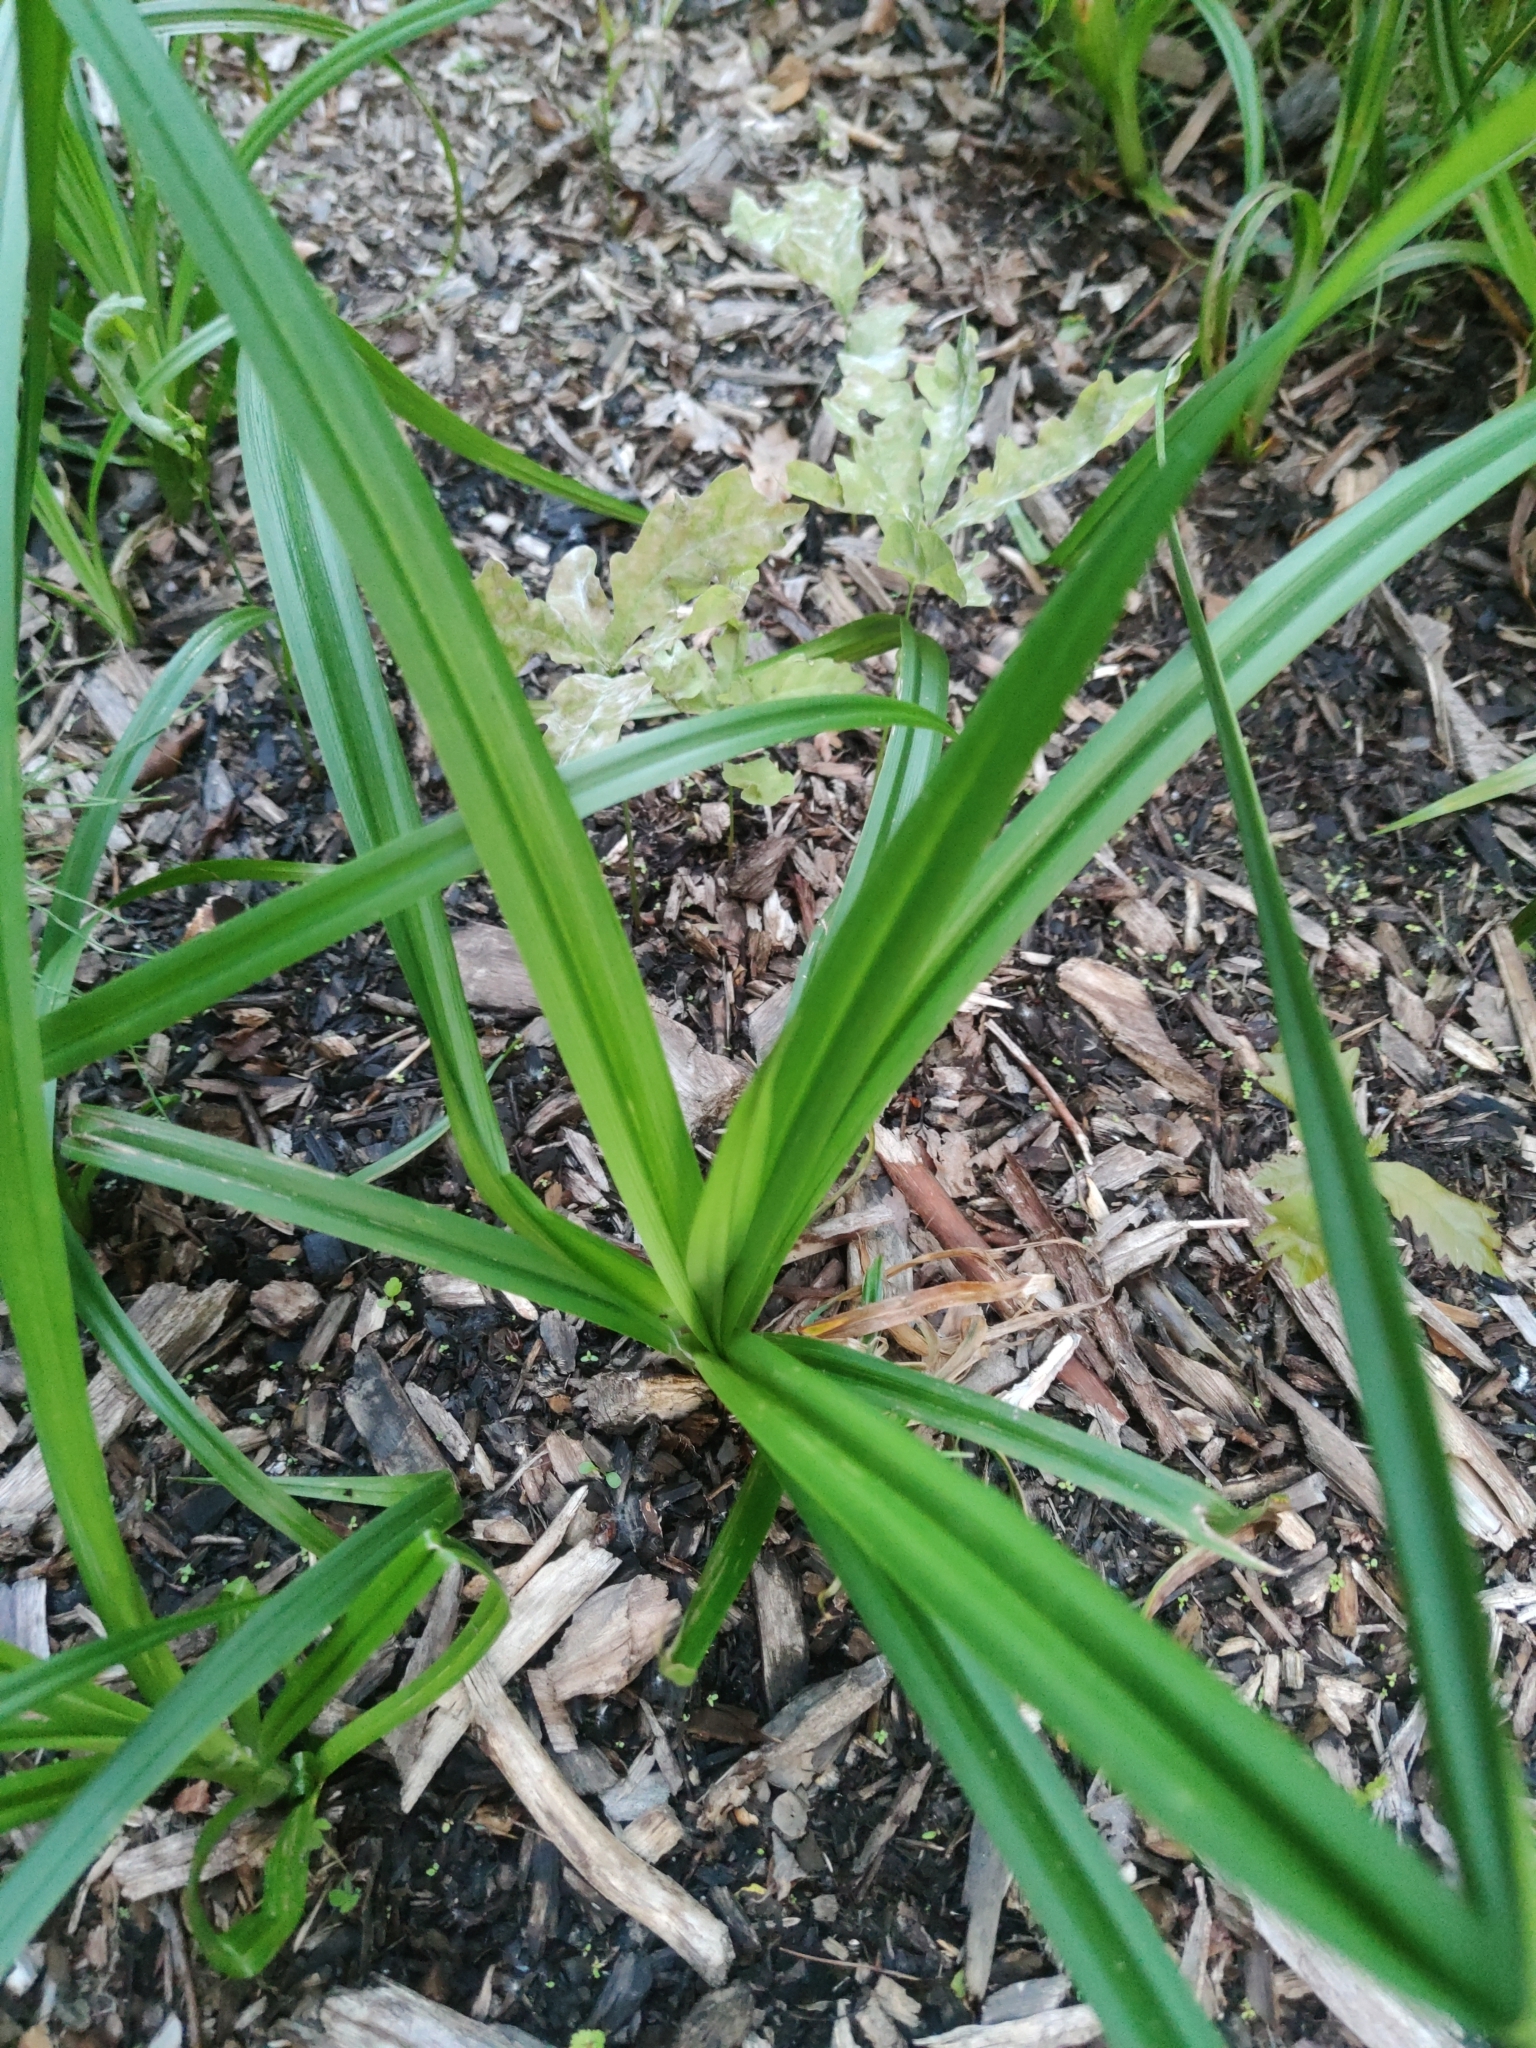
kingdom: Plantae
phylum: Tracheophyta
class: Liliopsida
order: Poales
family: Cyperaceae
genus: Scirpus
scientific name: Scirpus sylvaticus
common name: Wood club-rush
